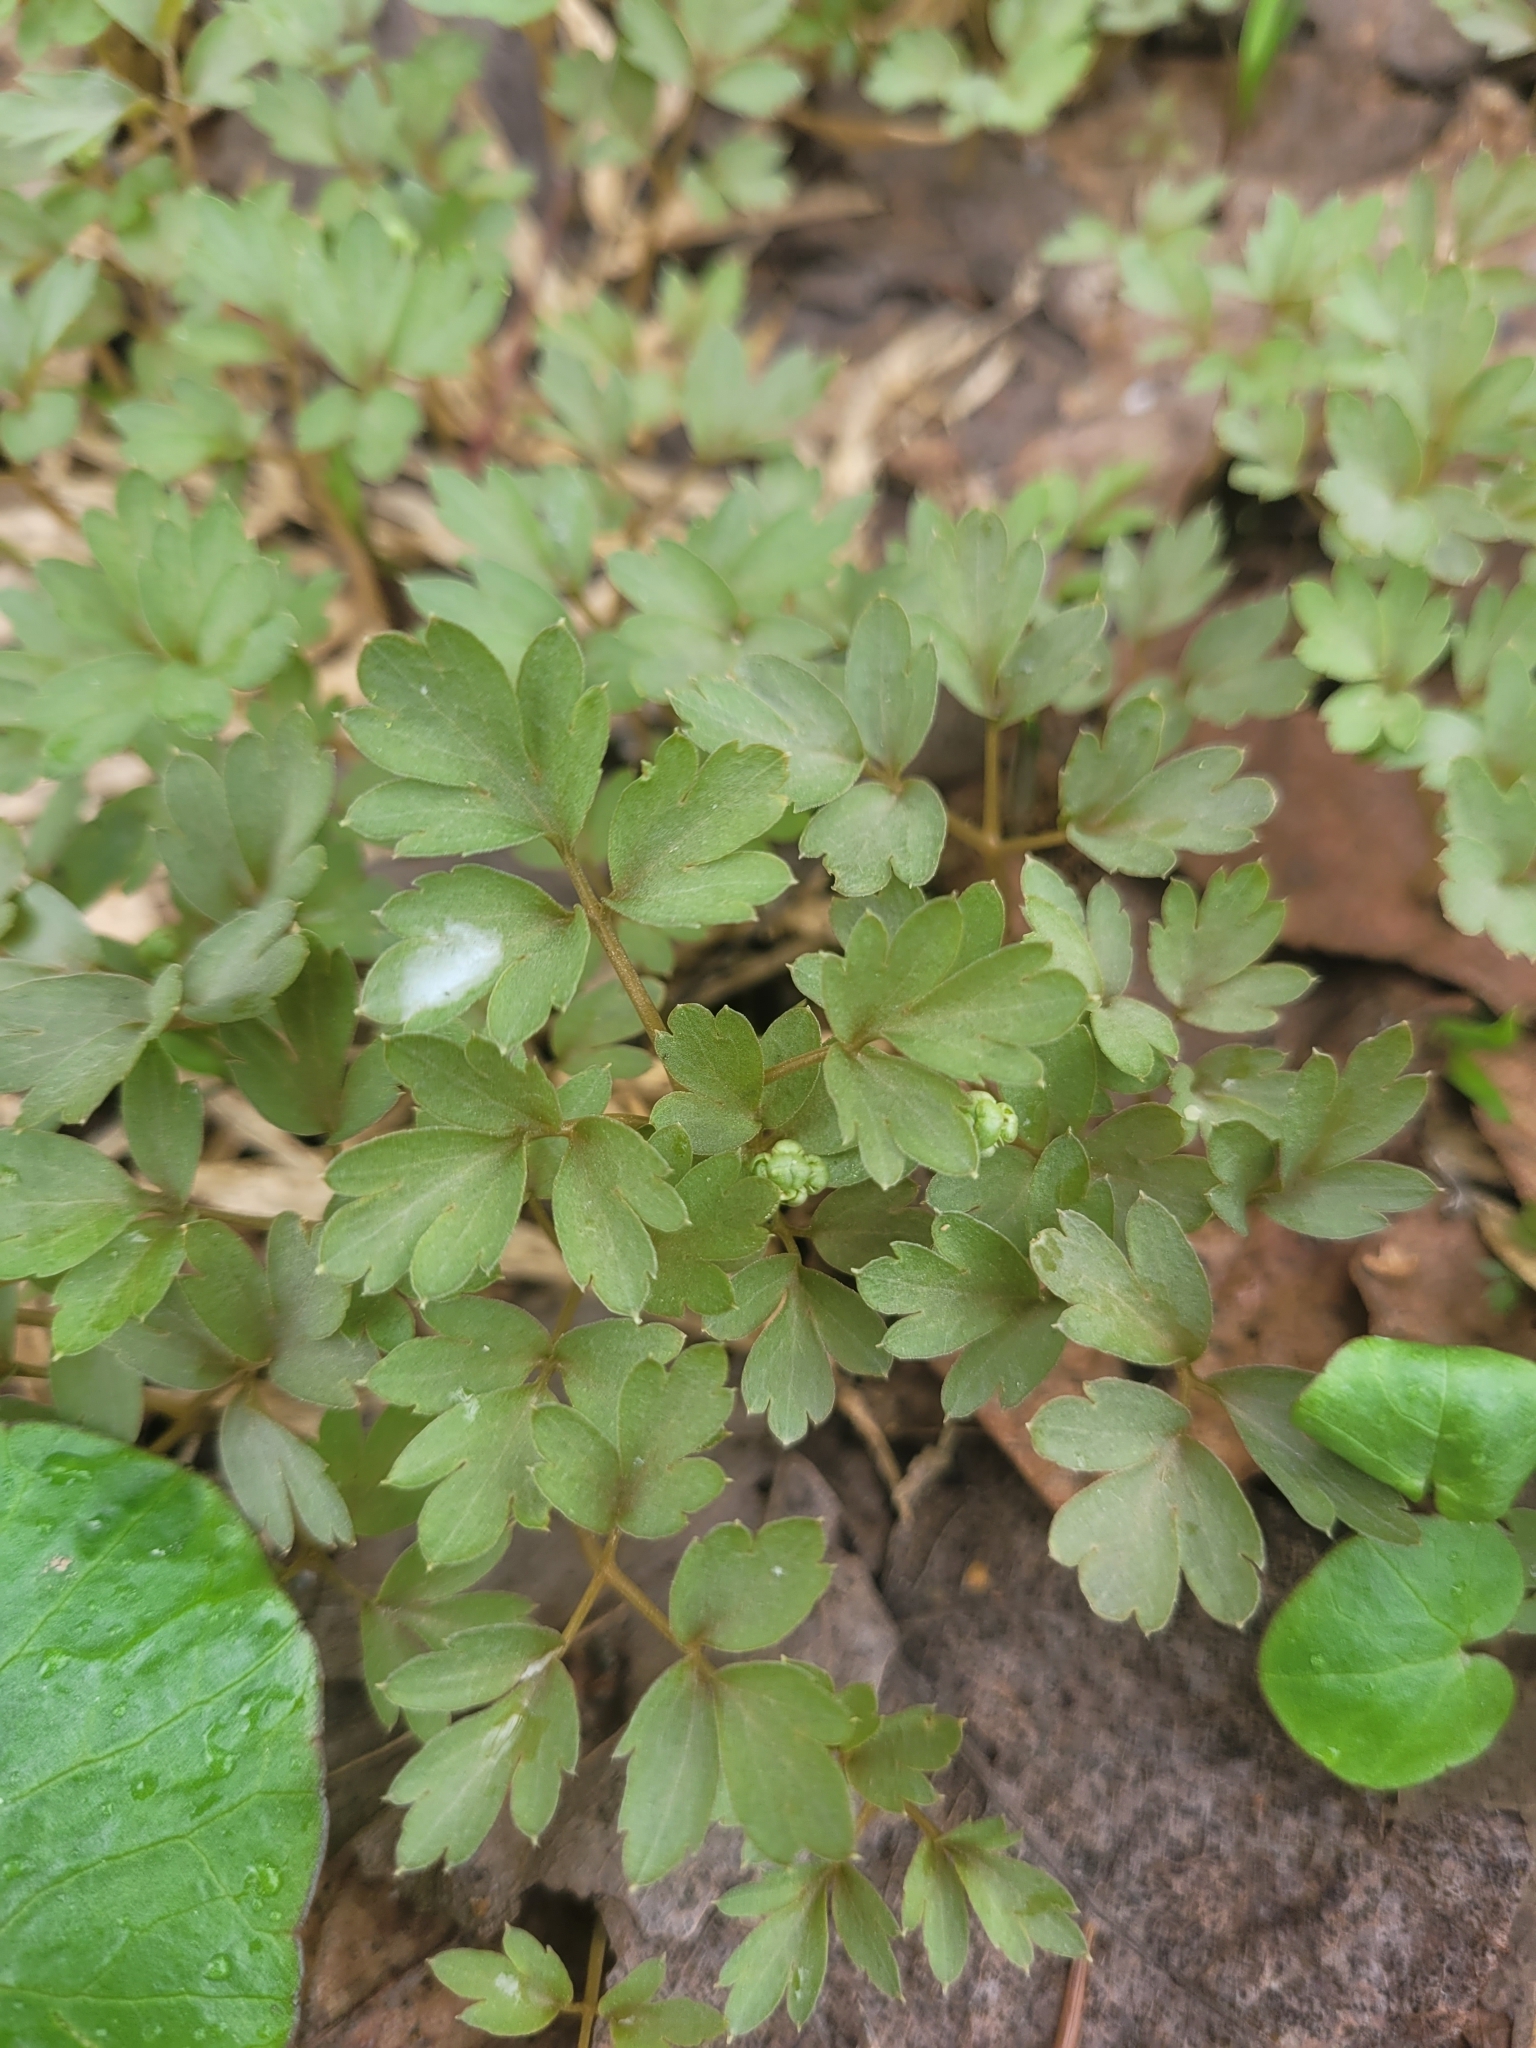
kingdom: Plantae
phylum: Tracheophyta
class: Magnoliopsida
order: Dipsacales
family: Viburnaceae
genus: Adoxa
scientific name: Adoxa moschatellina
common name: Moschatel
